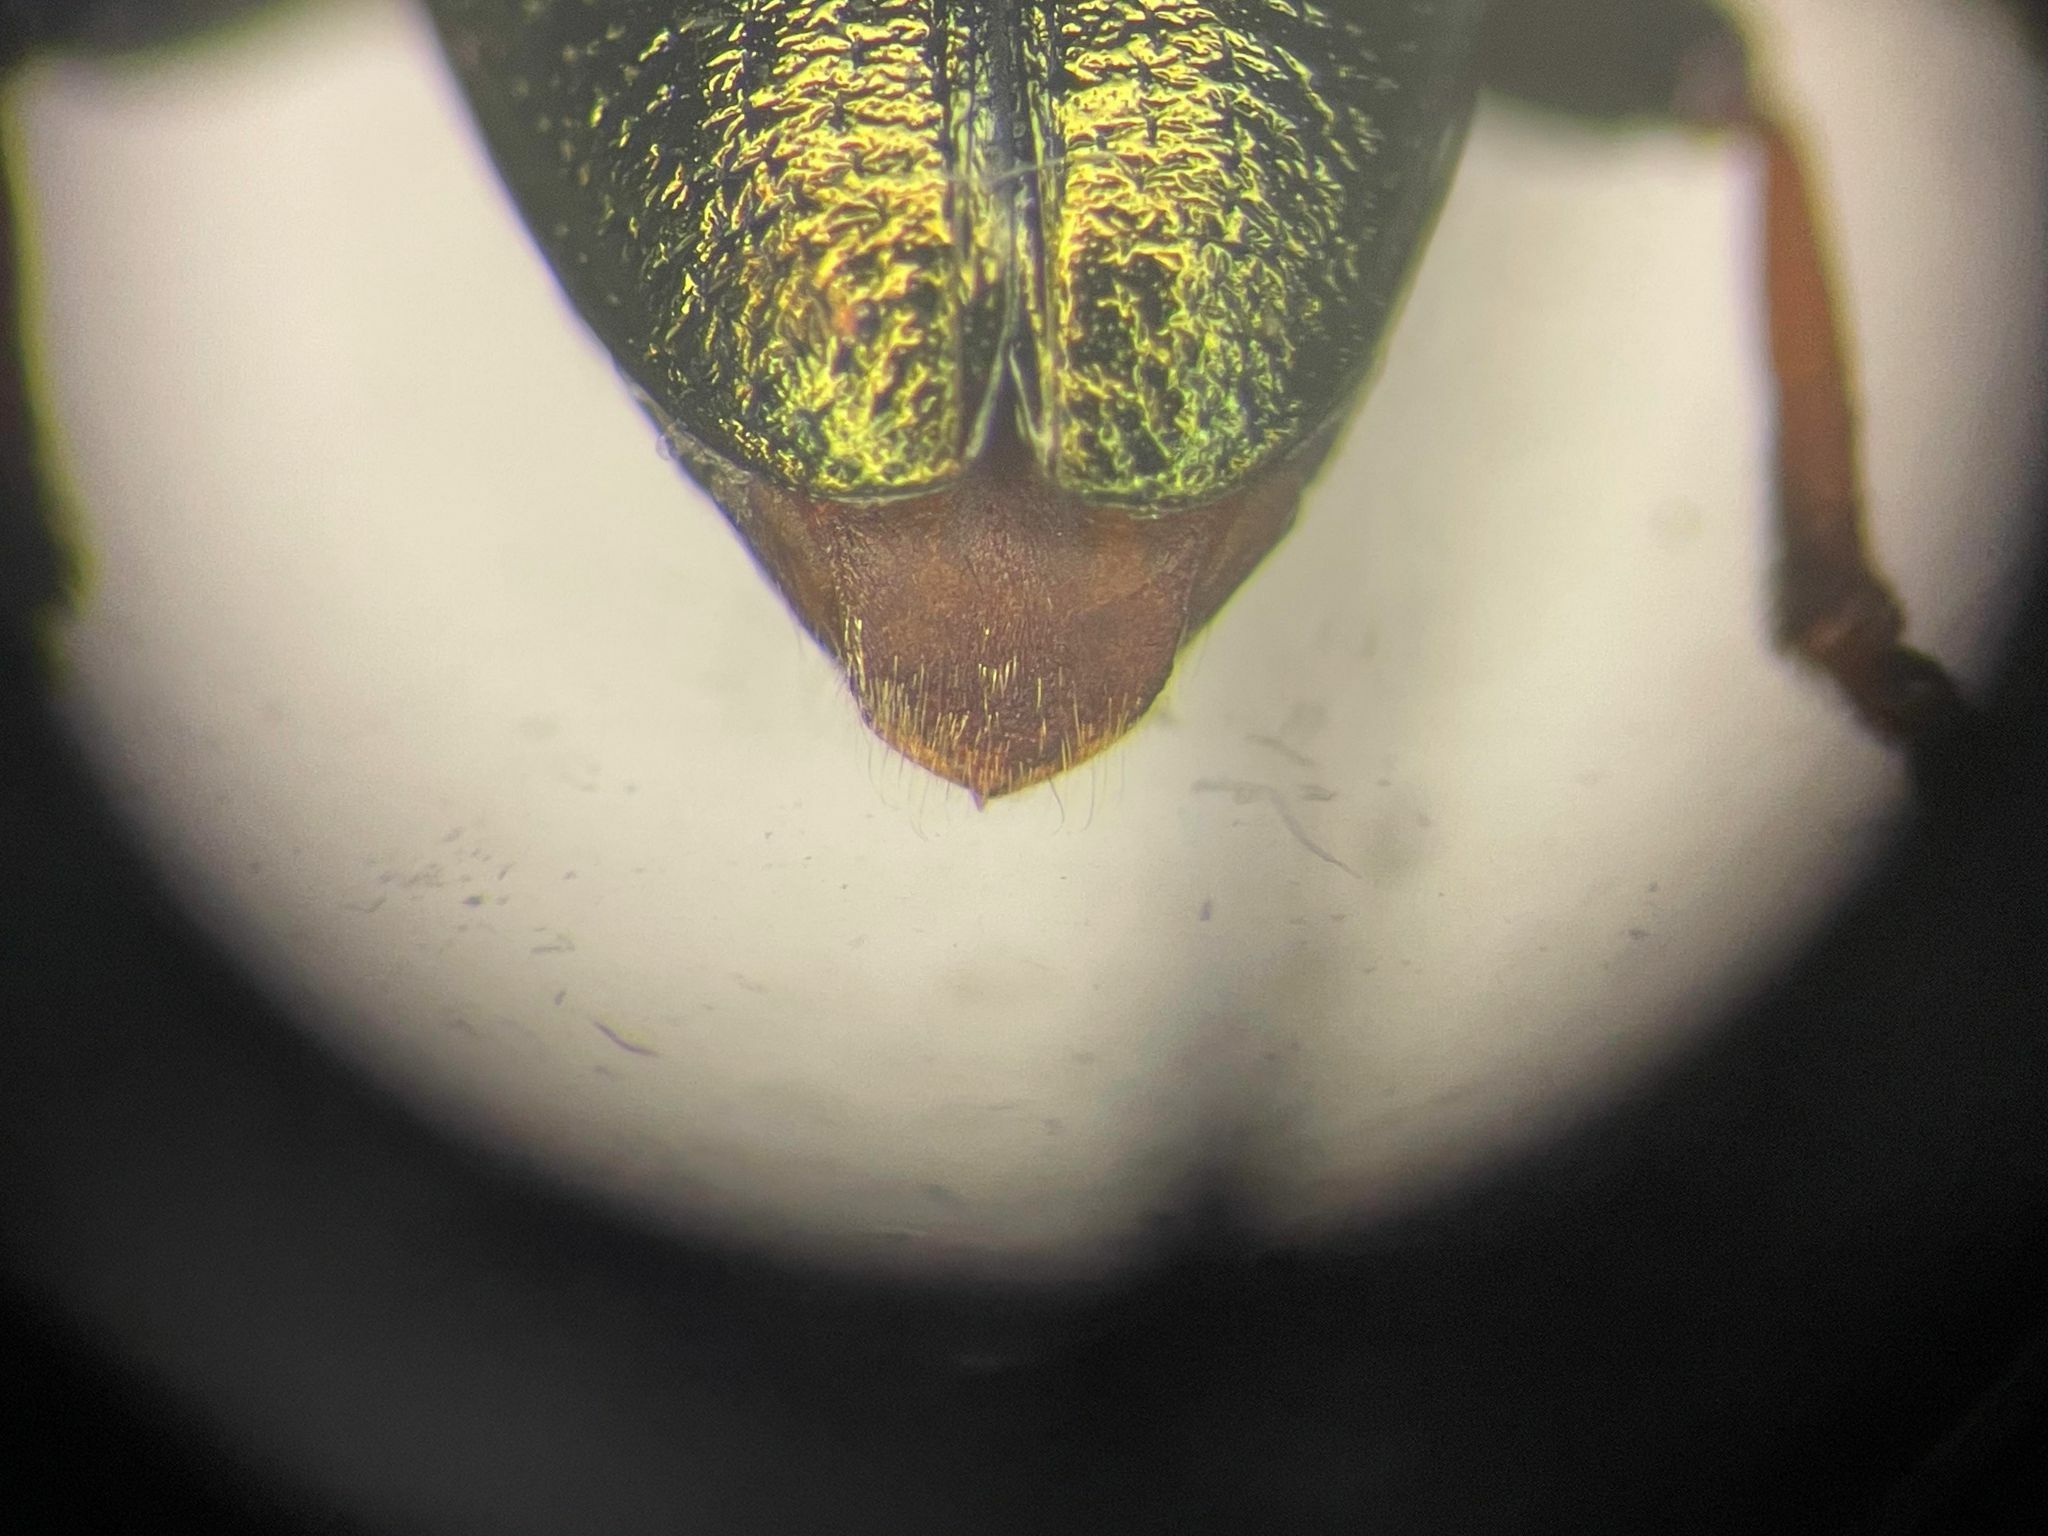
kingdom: Animalia
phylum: Arthropoda
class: Insecta
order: Coleoptera
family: Chrysomelidae
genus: Plateumaris
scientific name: Plateumaris metallica
